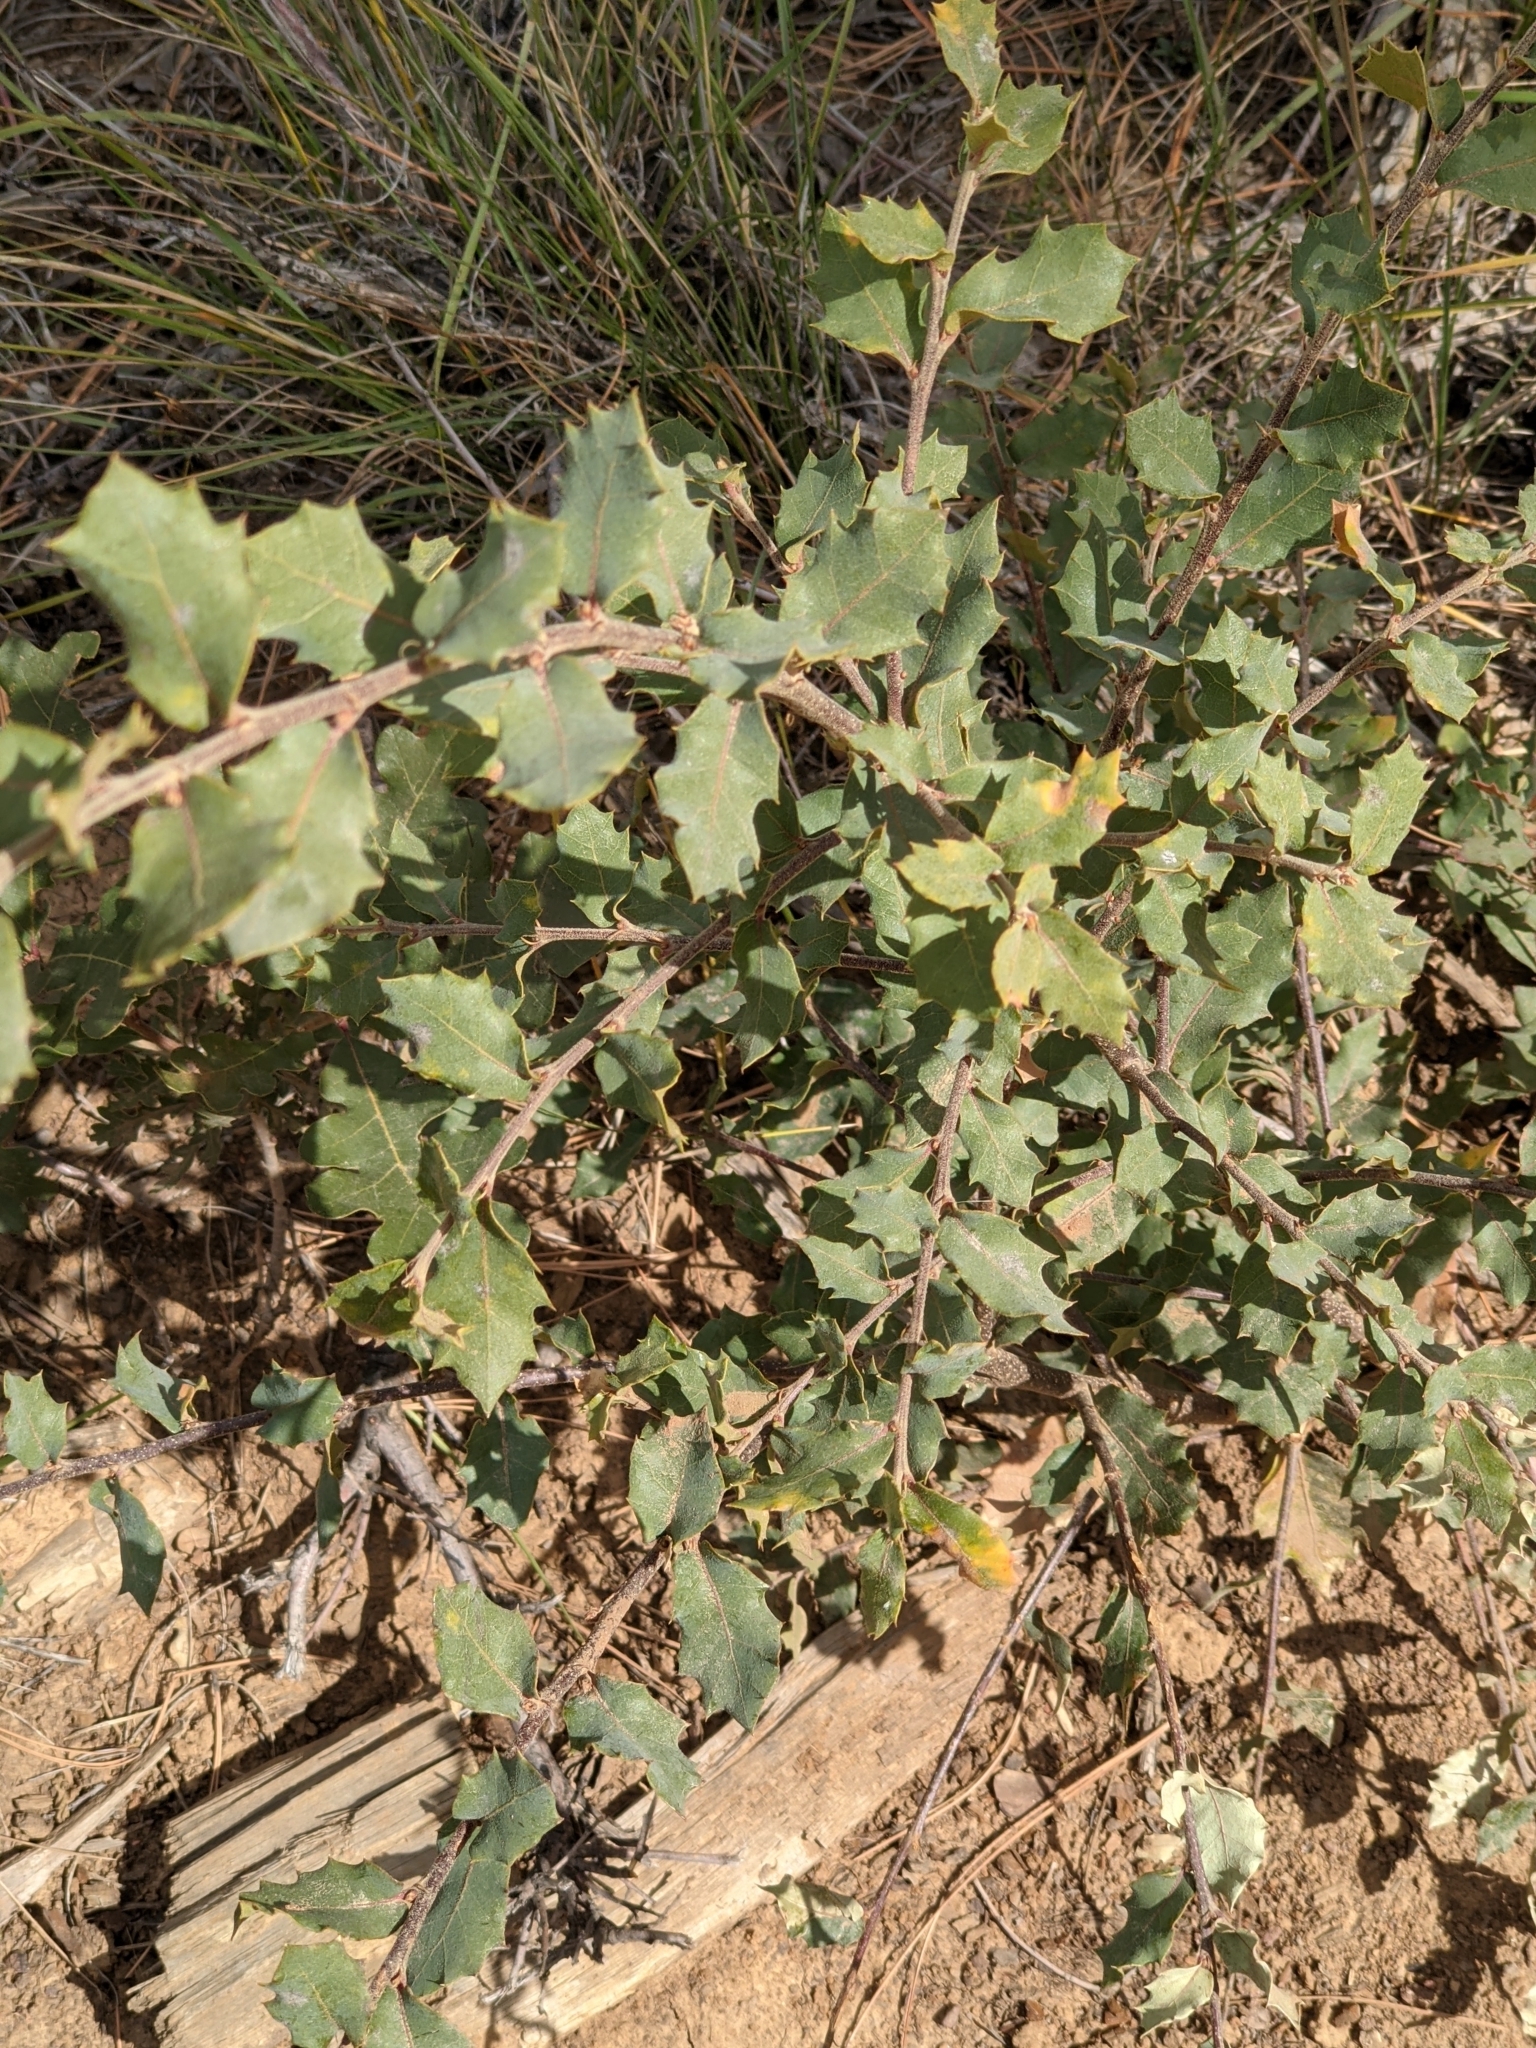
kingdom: Plantae
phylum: Tracheophyta
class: Magnoliopsida
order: Fagales
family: Fagaceae
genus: Quercus
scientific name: Quercus turbinella
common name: Sonoran scrub oak
